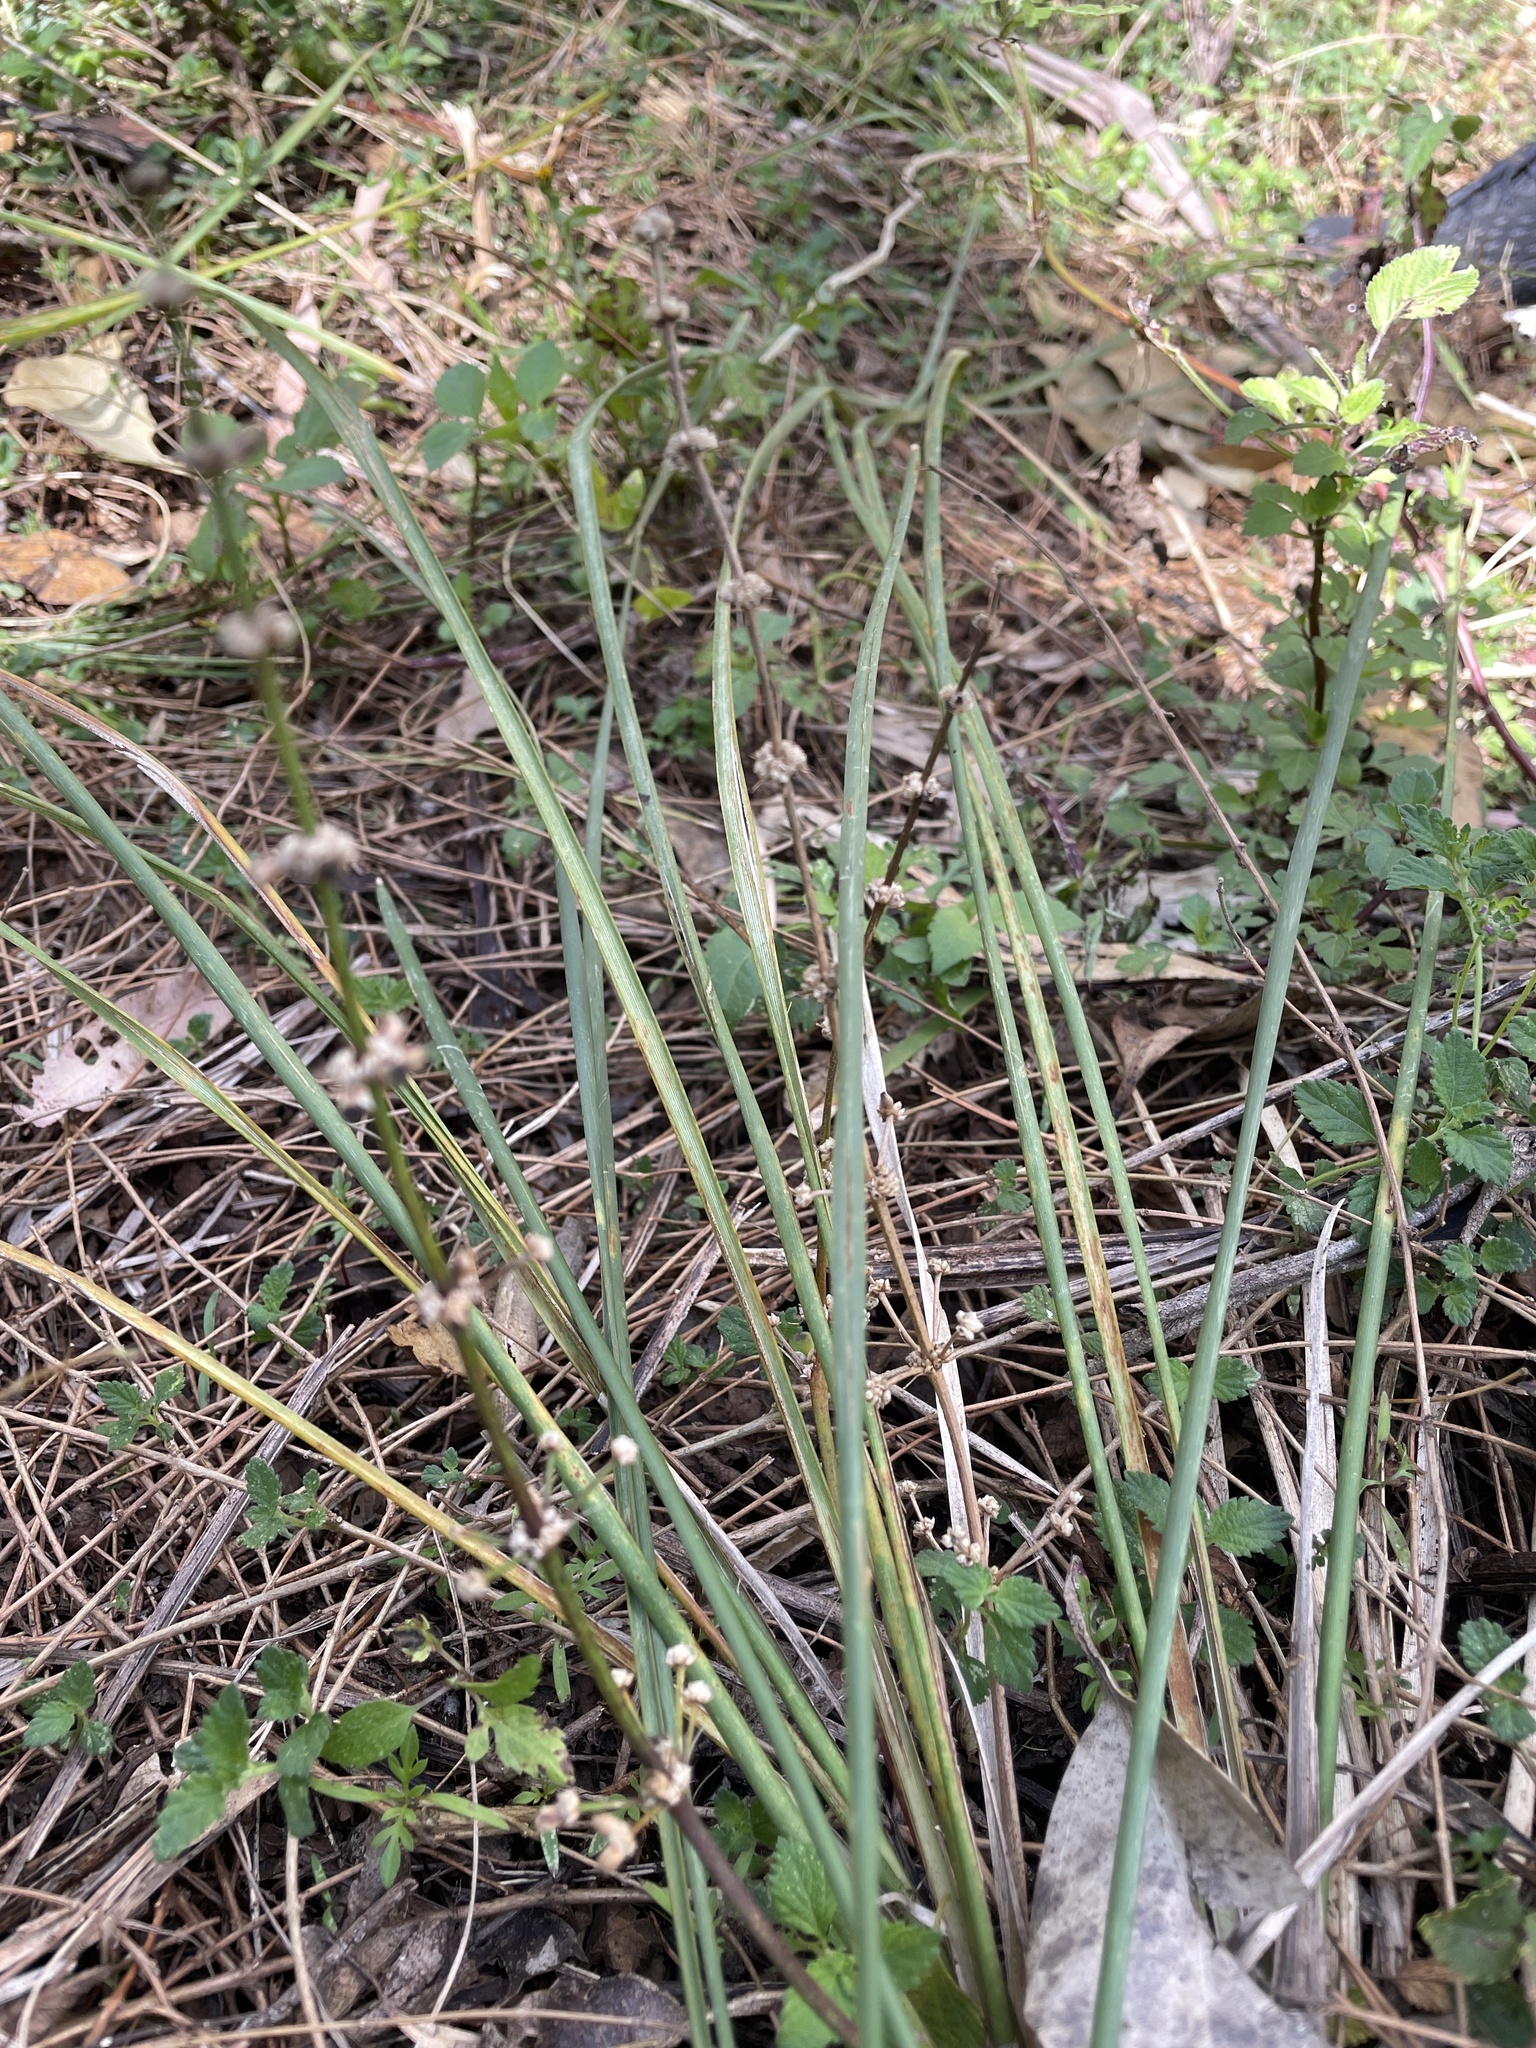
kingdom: Plantae
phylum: Tracheophyta
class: Liliopsida
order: Asparagales
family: Asparagaceae
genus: Lomandra
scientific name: Lomandra multiflora
